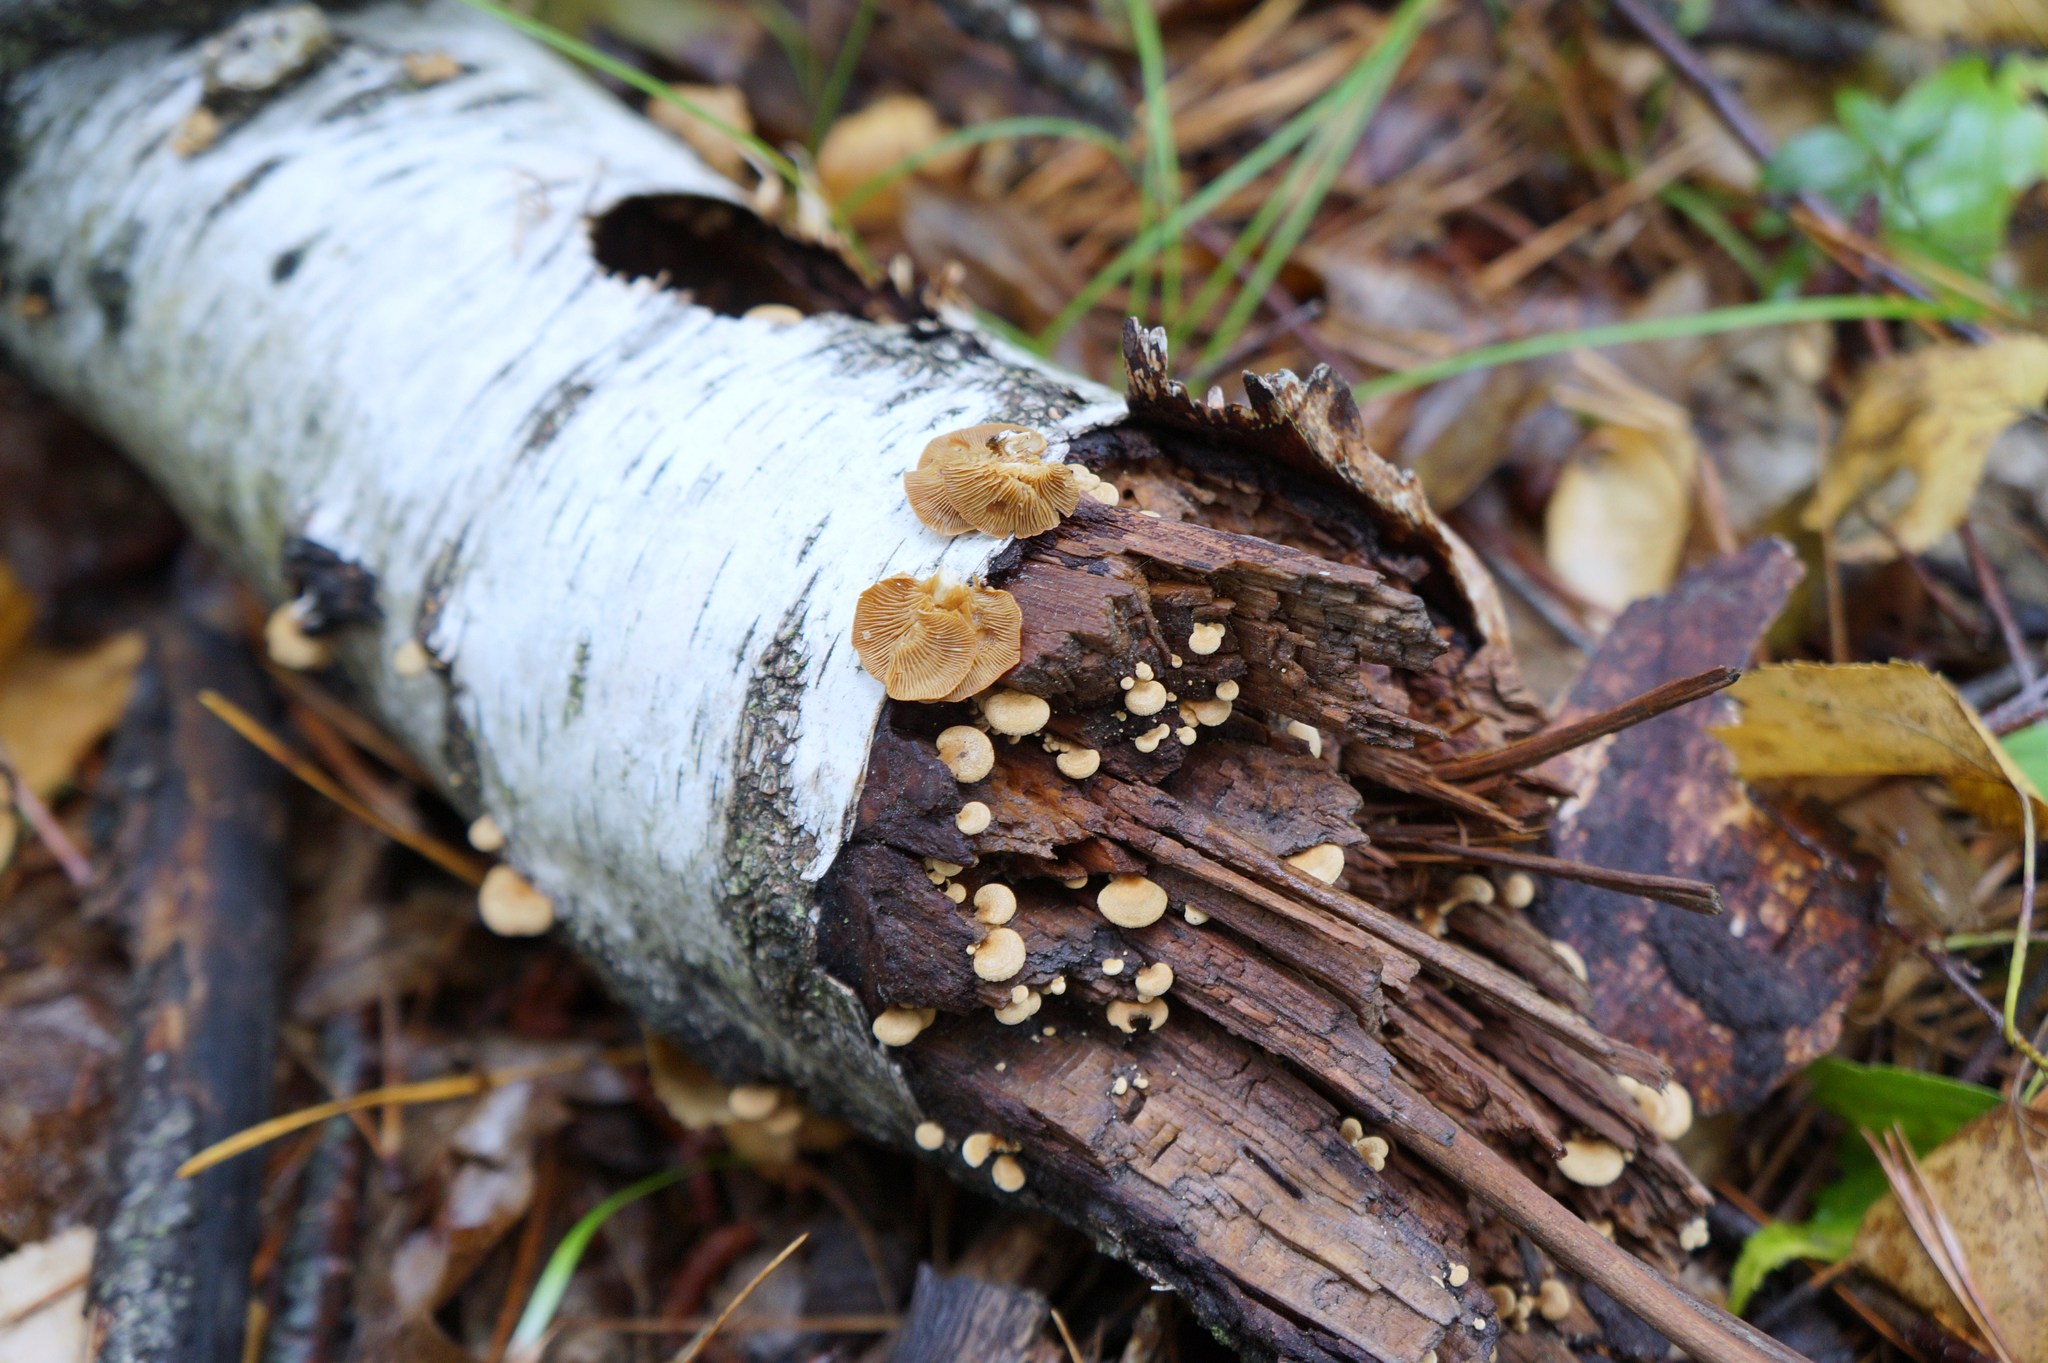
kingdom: Fungi
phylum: Basidiomycota
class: Agaricomycetes
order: Agaricales
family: Mycenaceae
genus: Panellus
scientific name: Panellus stipticus
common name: Bitter oysterling
